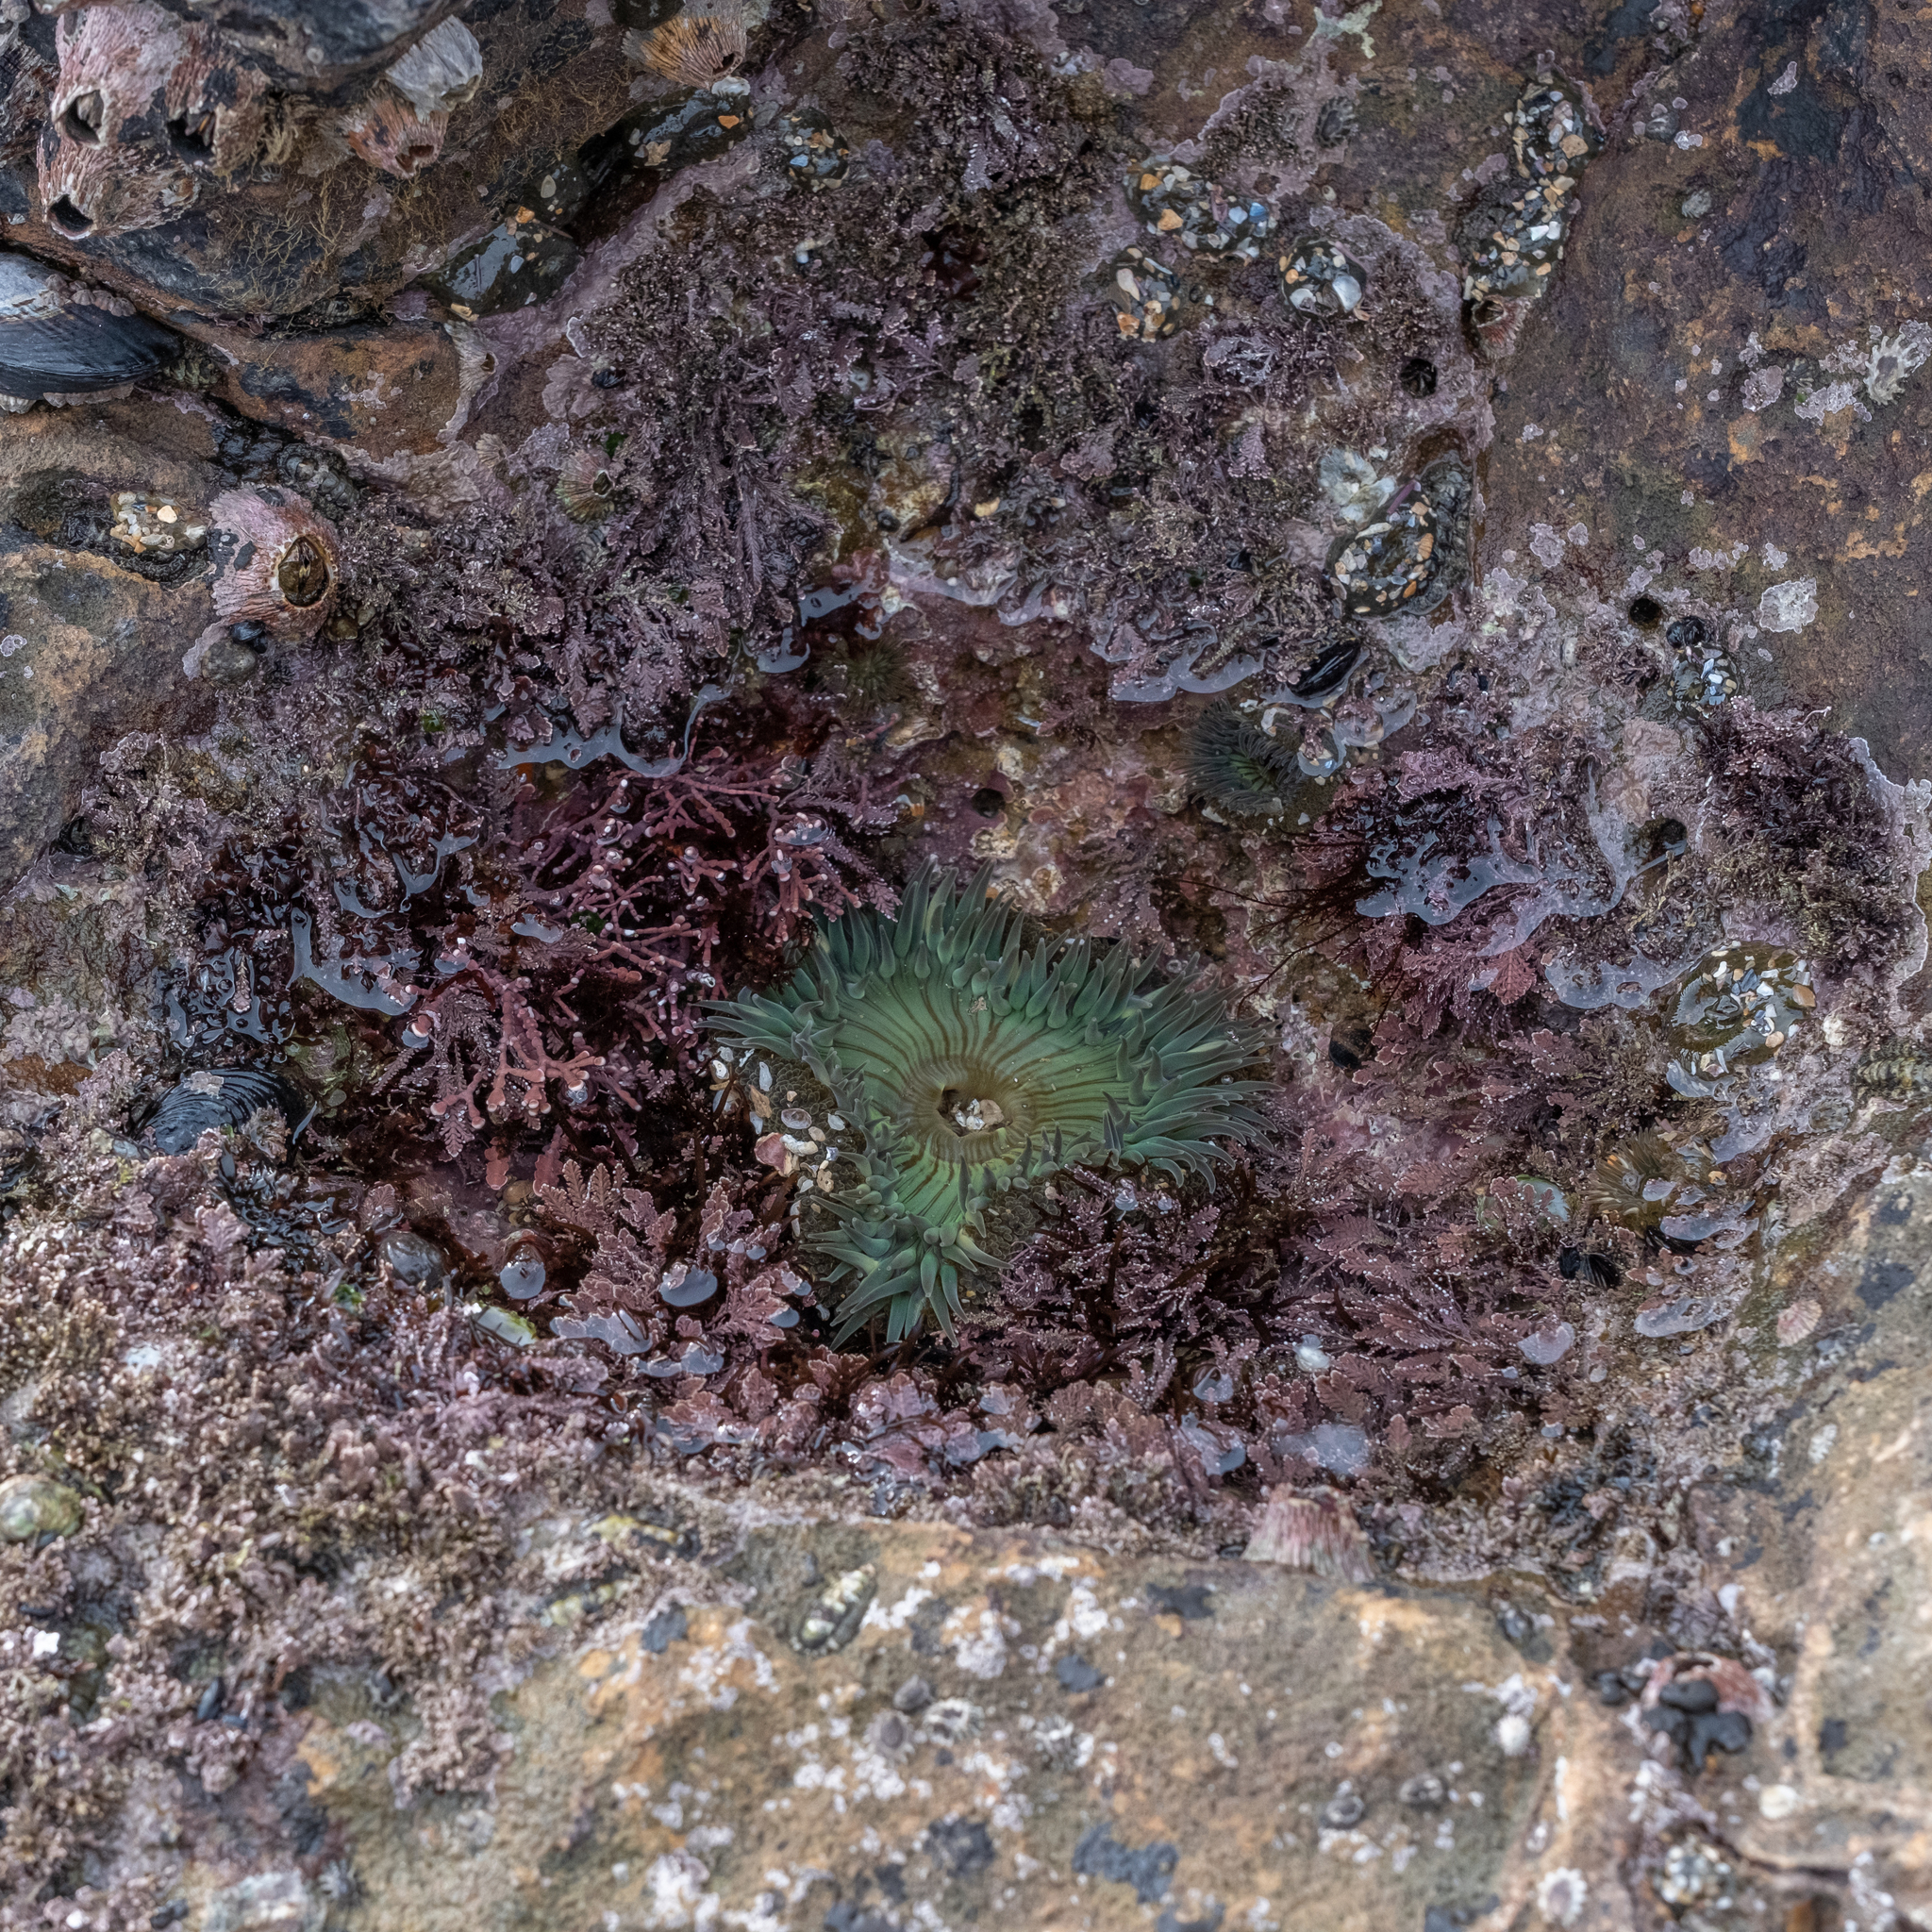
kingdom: Animalia
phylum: Cnidaria
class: Anthozoa
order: Actiniaria
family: Actiniidae
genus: Anthopleura
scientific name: Anthopleura sola
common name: Sun anemone
